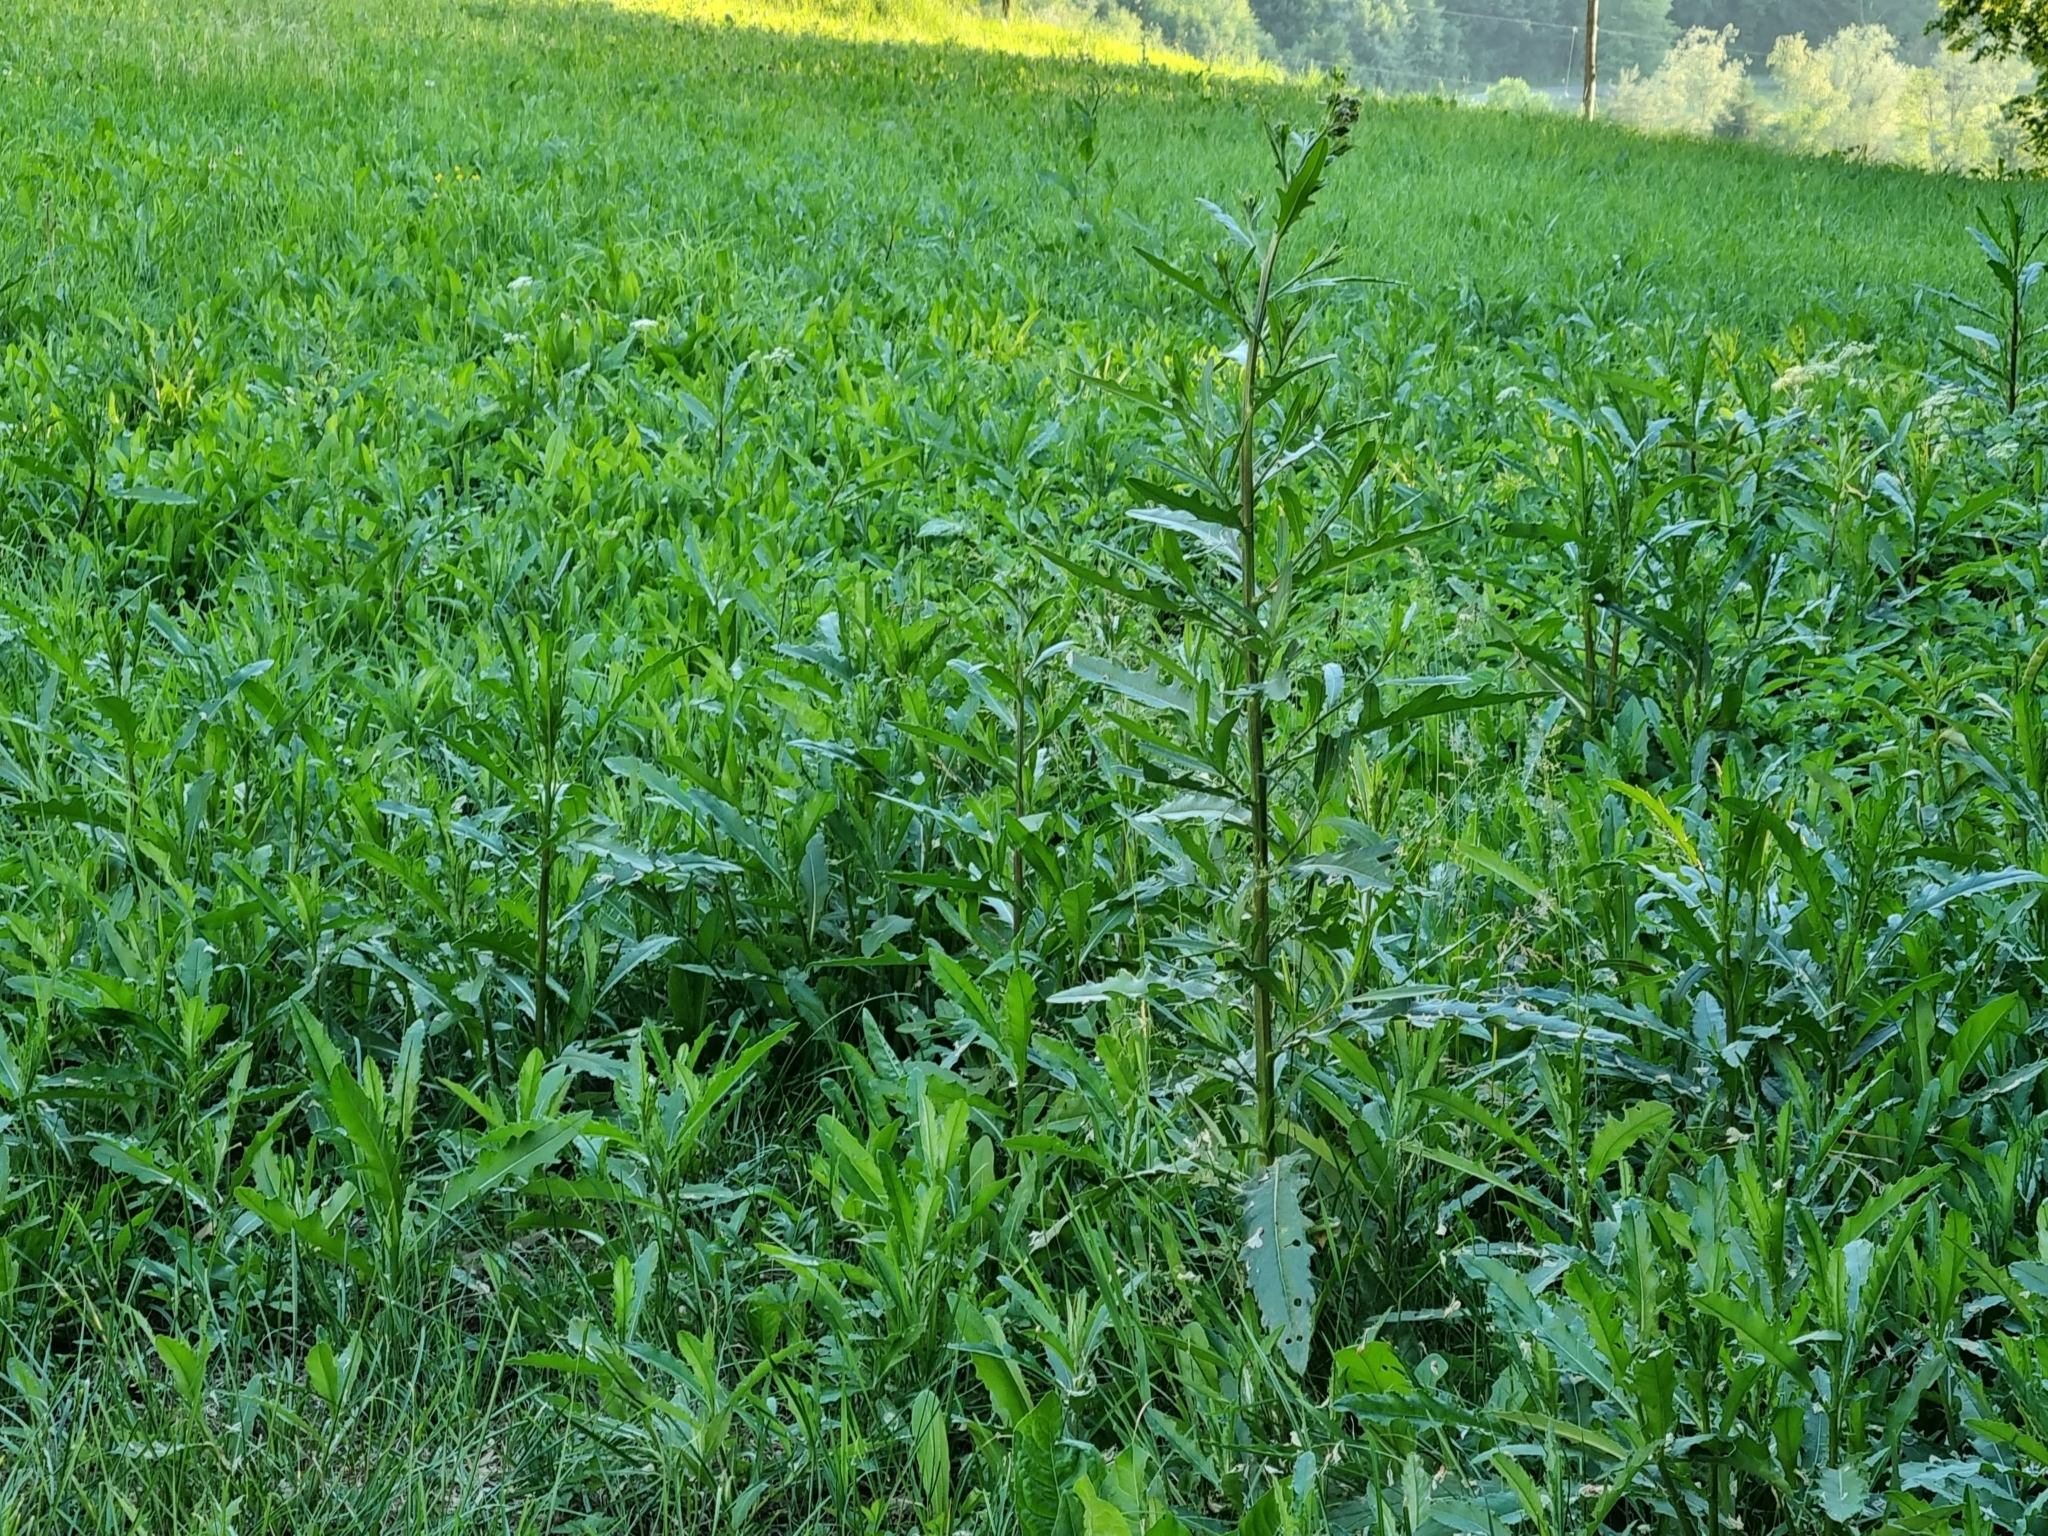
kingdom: Plantae
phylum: Tracheophyta
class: Magnoliopsida
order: Asterales
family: Asteraceae
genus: Cirsium
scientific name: Cirsium arvense
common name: Creeping thistle
